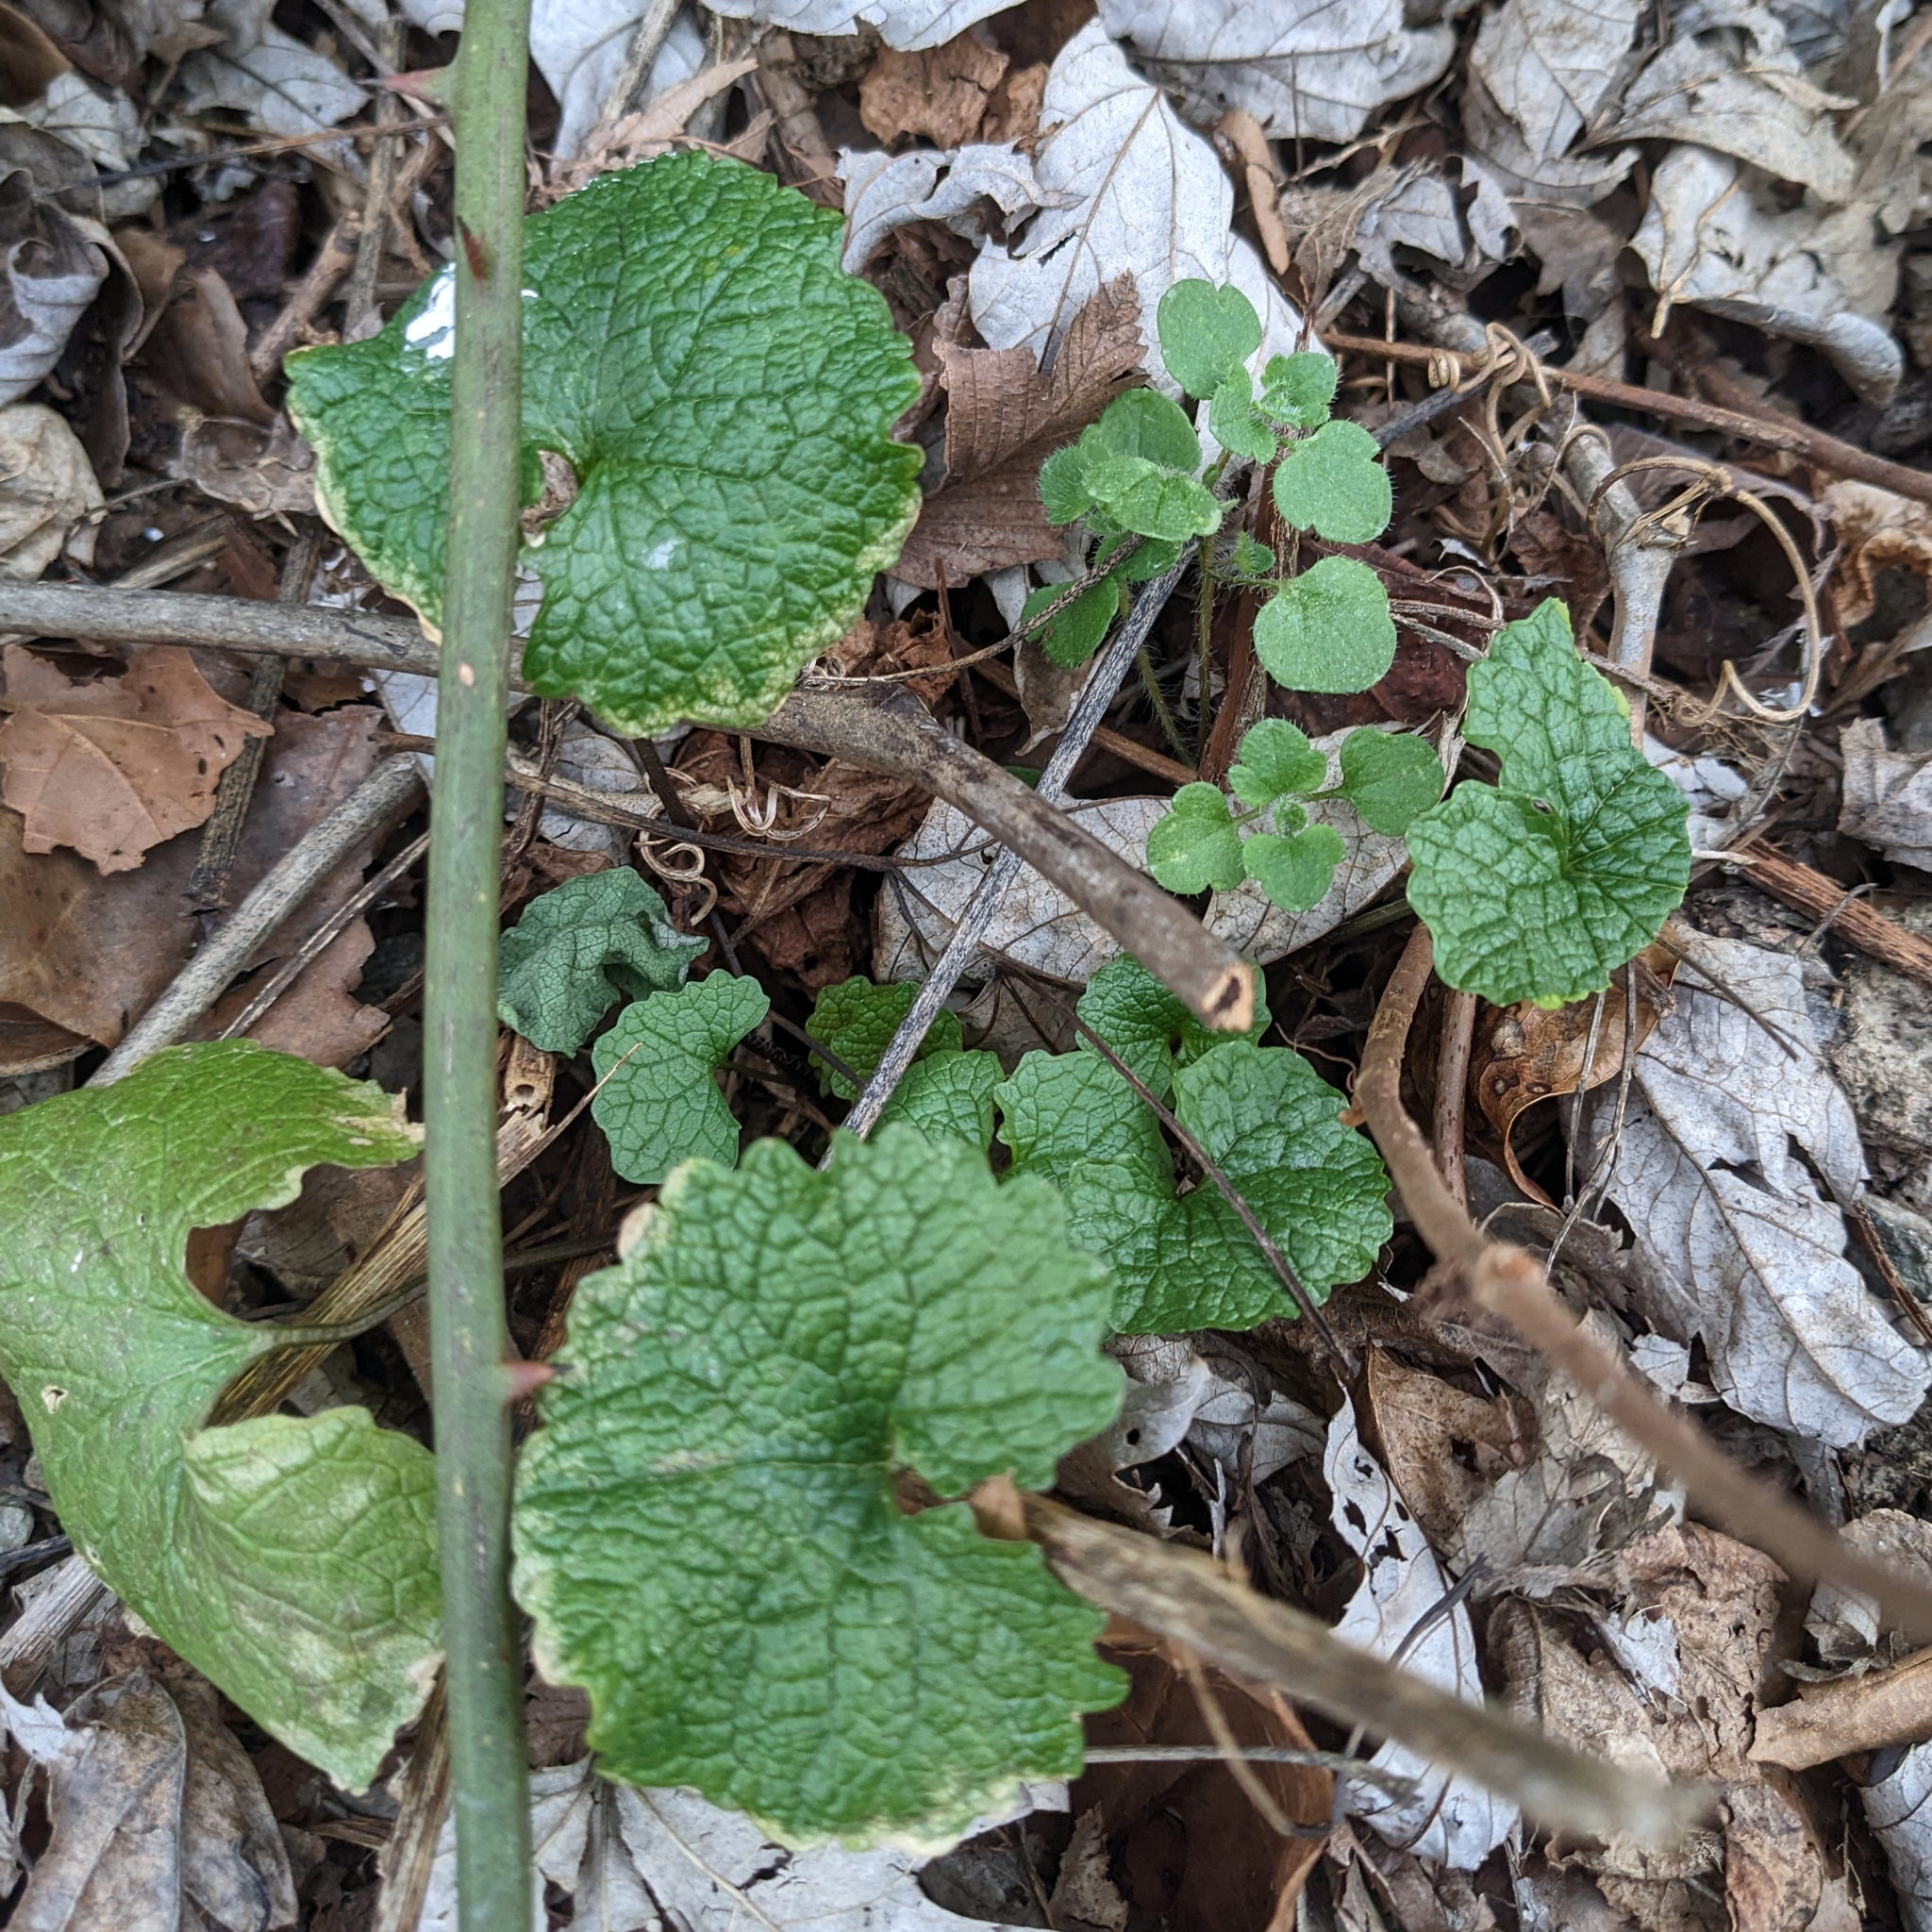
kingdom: Plantae
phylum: Tracheophyta
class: Magnoliopsida
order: Brassicales
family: Brassicaceae
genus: Alliaria
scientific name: Alliaria petiolata
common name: Garlic mustard
